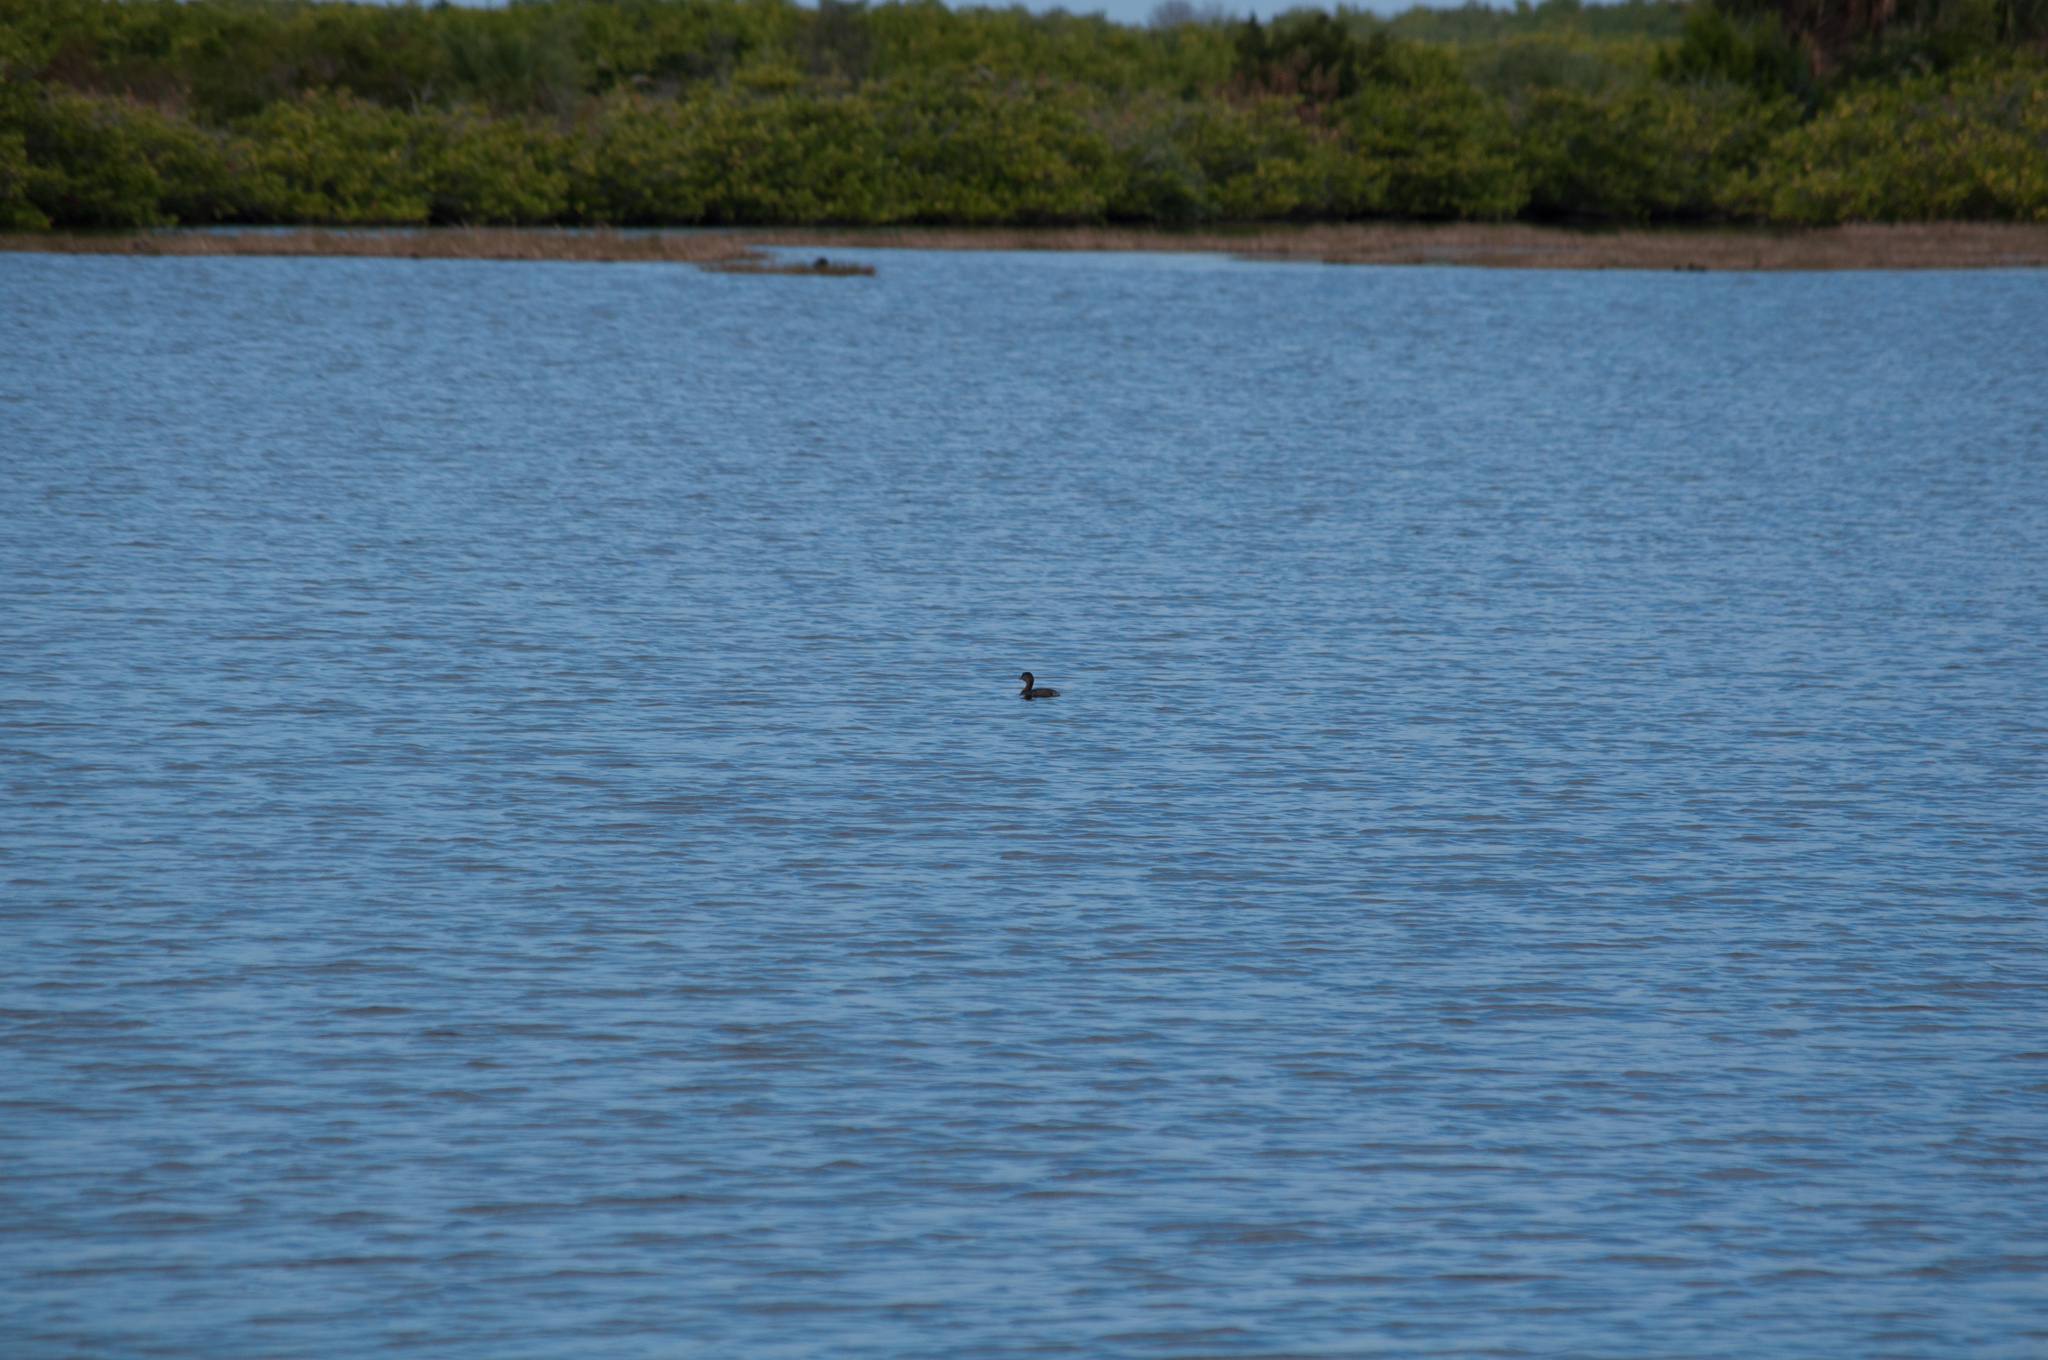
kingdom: Animalia
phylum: Chordata
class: Aves
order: Podicipediformes
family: Podicipedidae
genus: Podilymbus
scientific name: Podilymbus podiceps
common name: Pied-billed grebe
